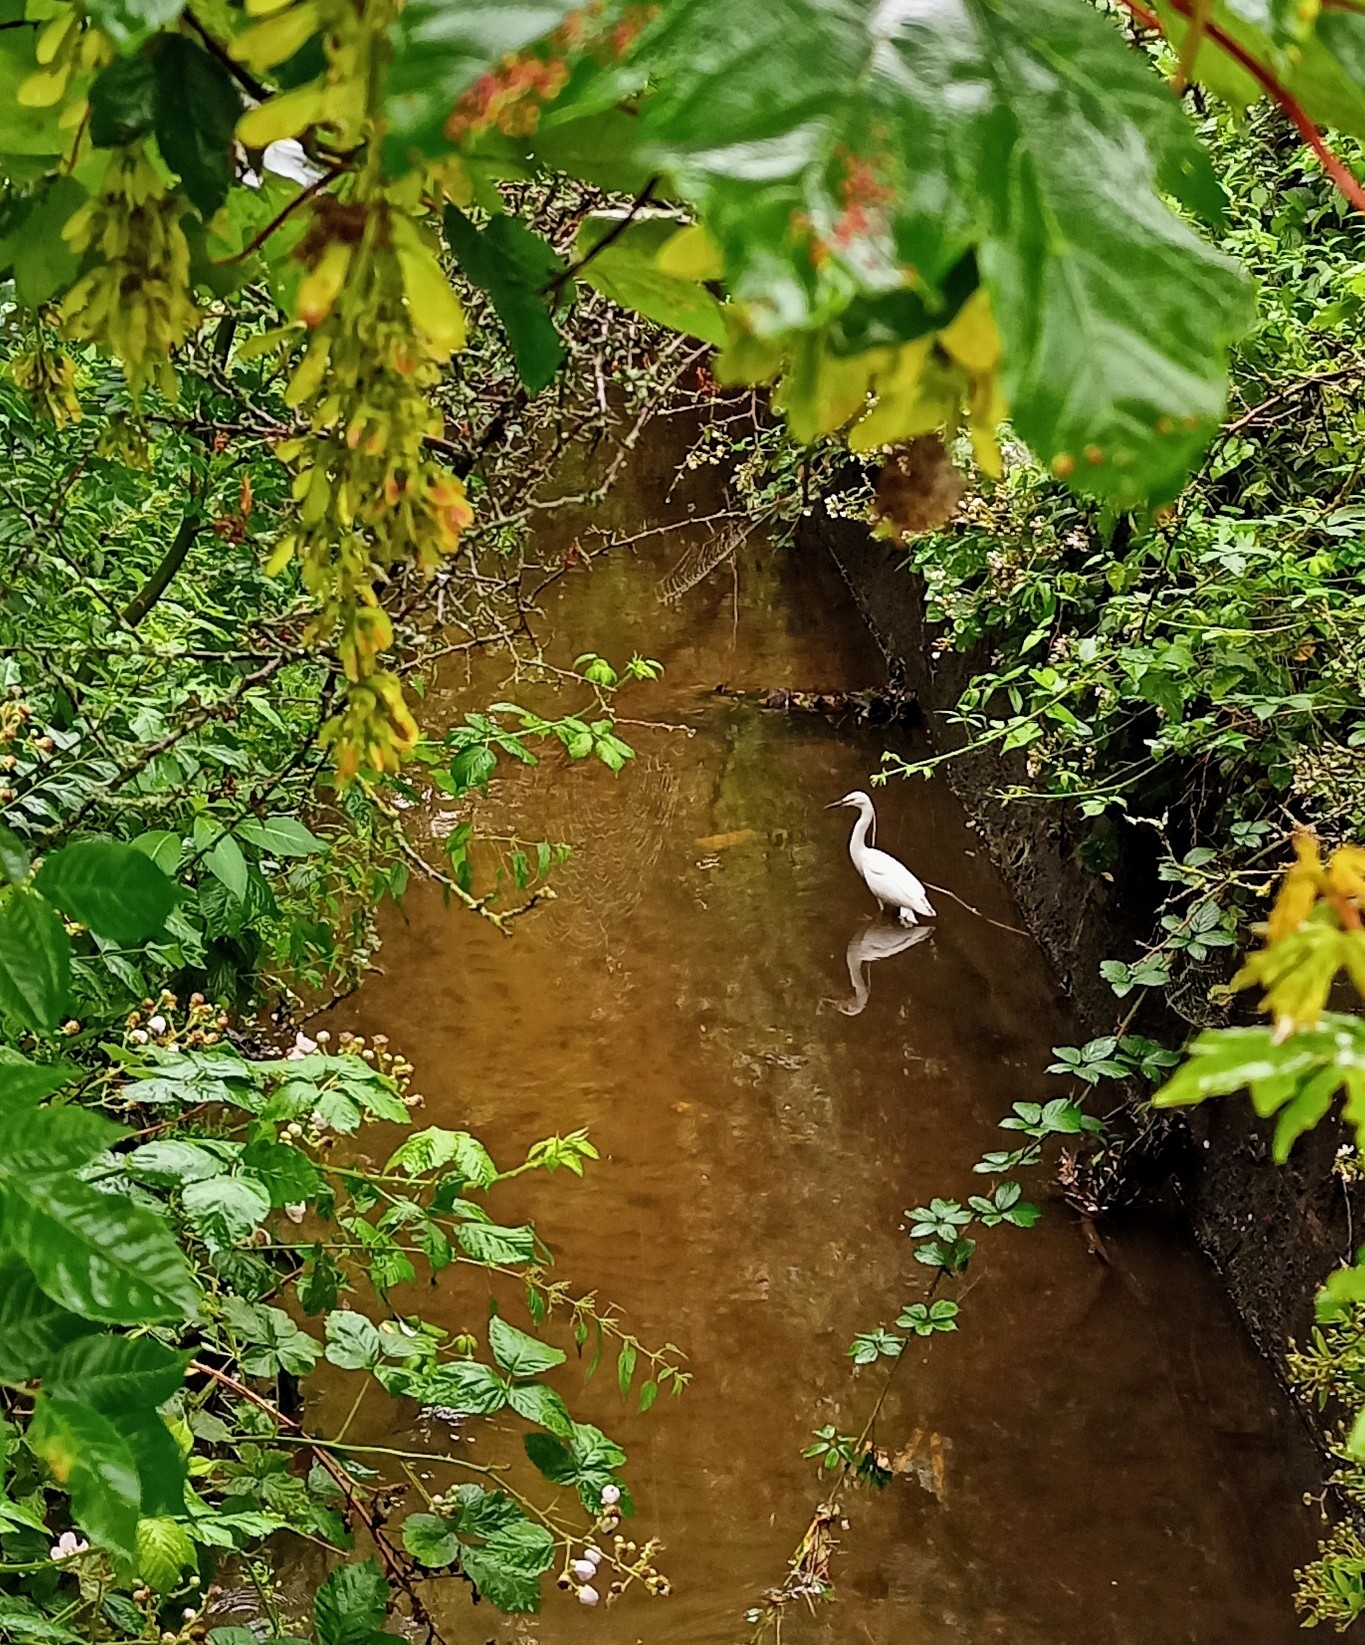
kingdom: Animalia
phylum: Chordata
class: Aves
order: Pelecaniformes
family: Ardeidae
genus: Egretta
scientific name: Egretta garzetta
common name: Little egret
